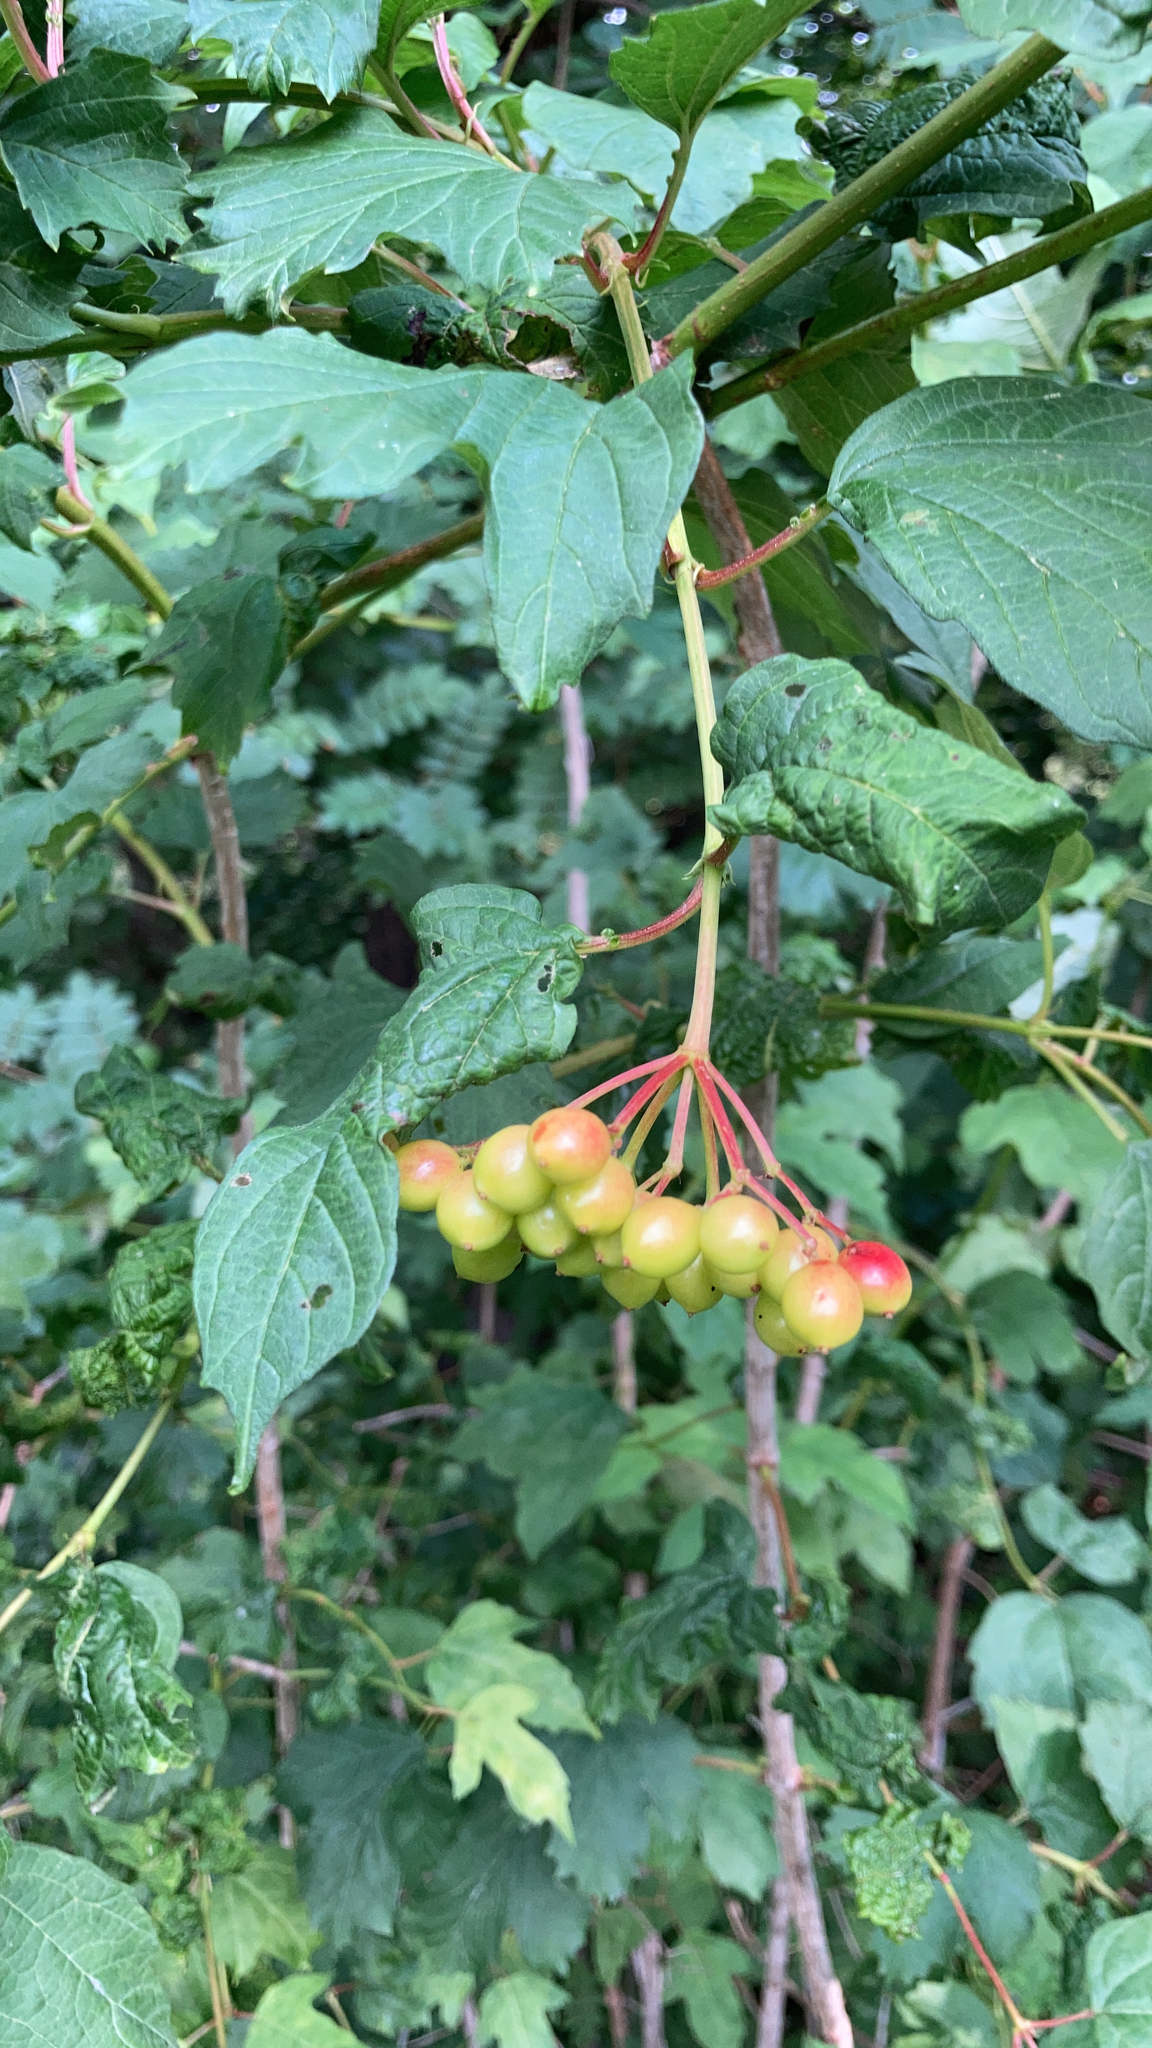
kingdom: Plantae
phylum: Tracheophyta
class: Magnoliopsida
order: Dipsacales
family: Viburnaceae
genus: Viburnum
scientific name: Viburnum opulus
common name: Guelder-rose
